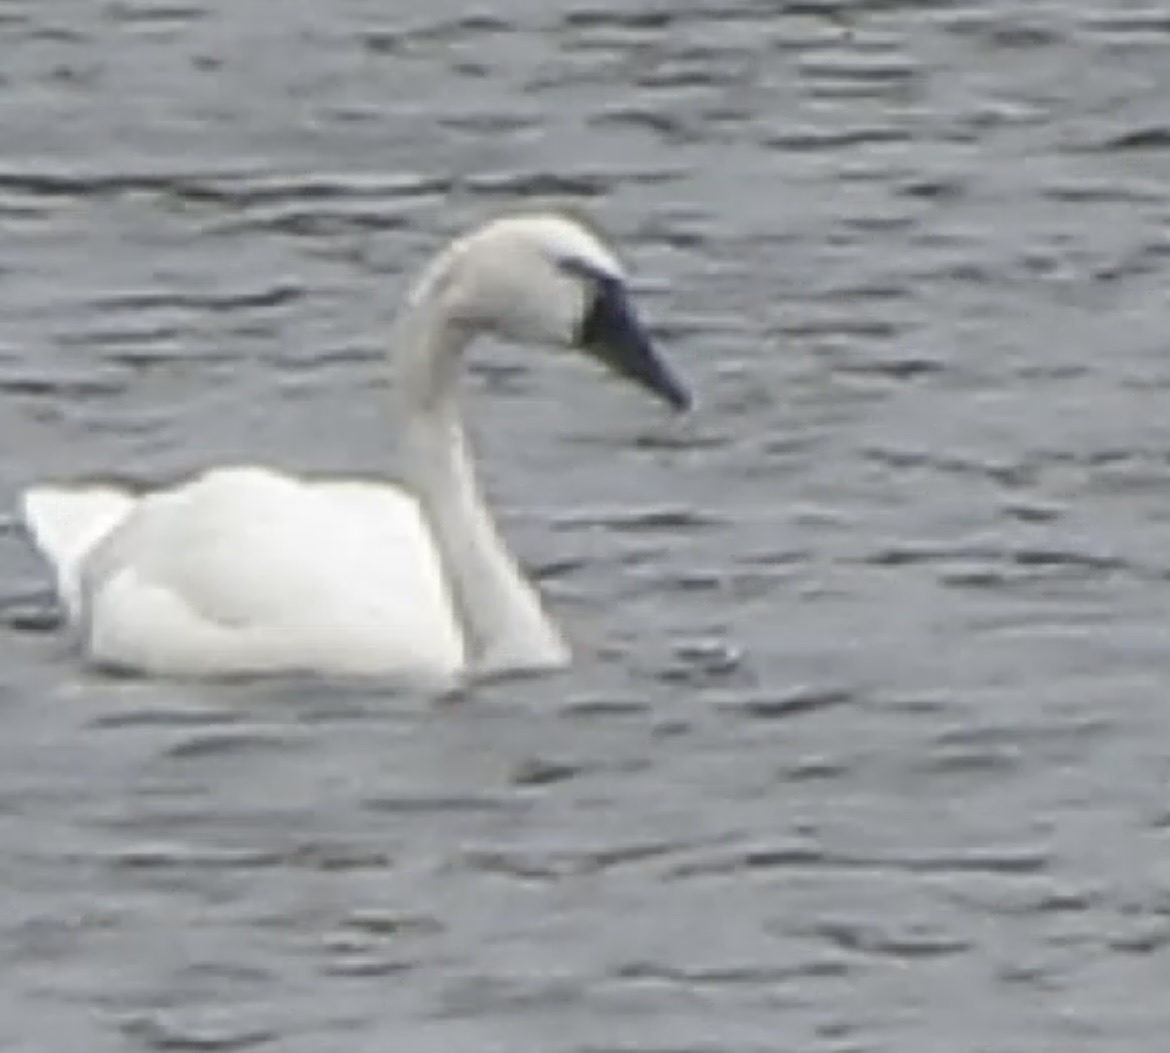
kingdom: Animalia
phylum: Chordata
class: Aves
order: Anseriformes
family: Anatidae
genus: Cygnus
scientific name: Cygnus columbianus
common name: Tundra swan
